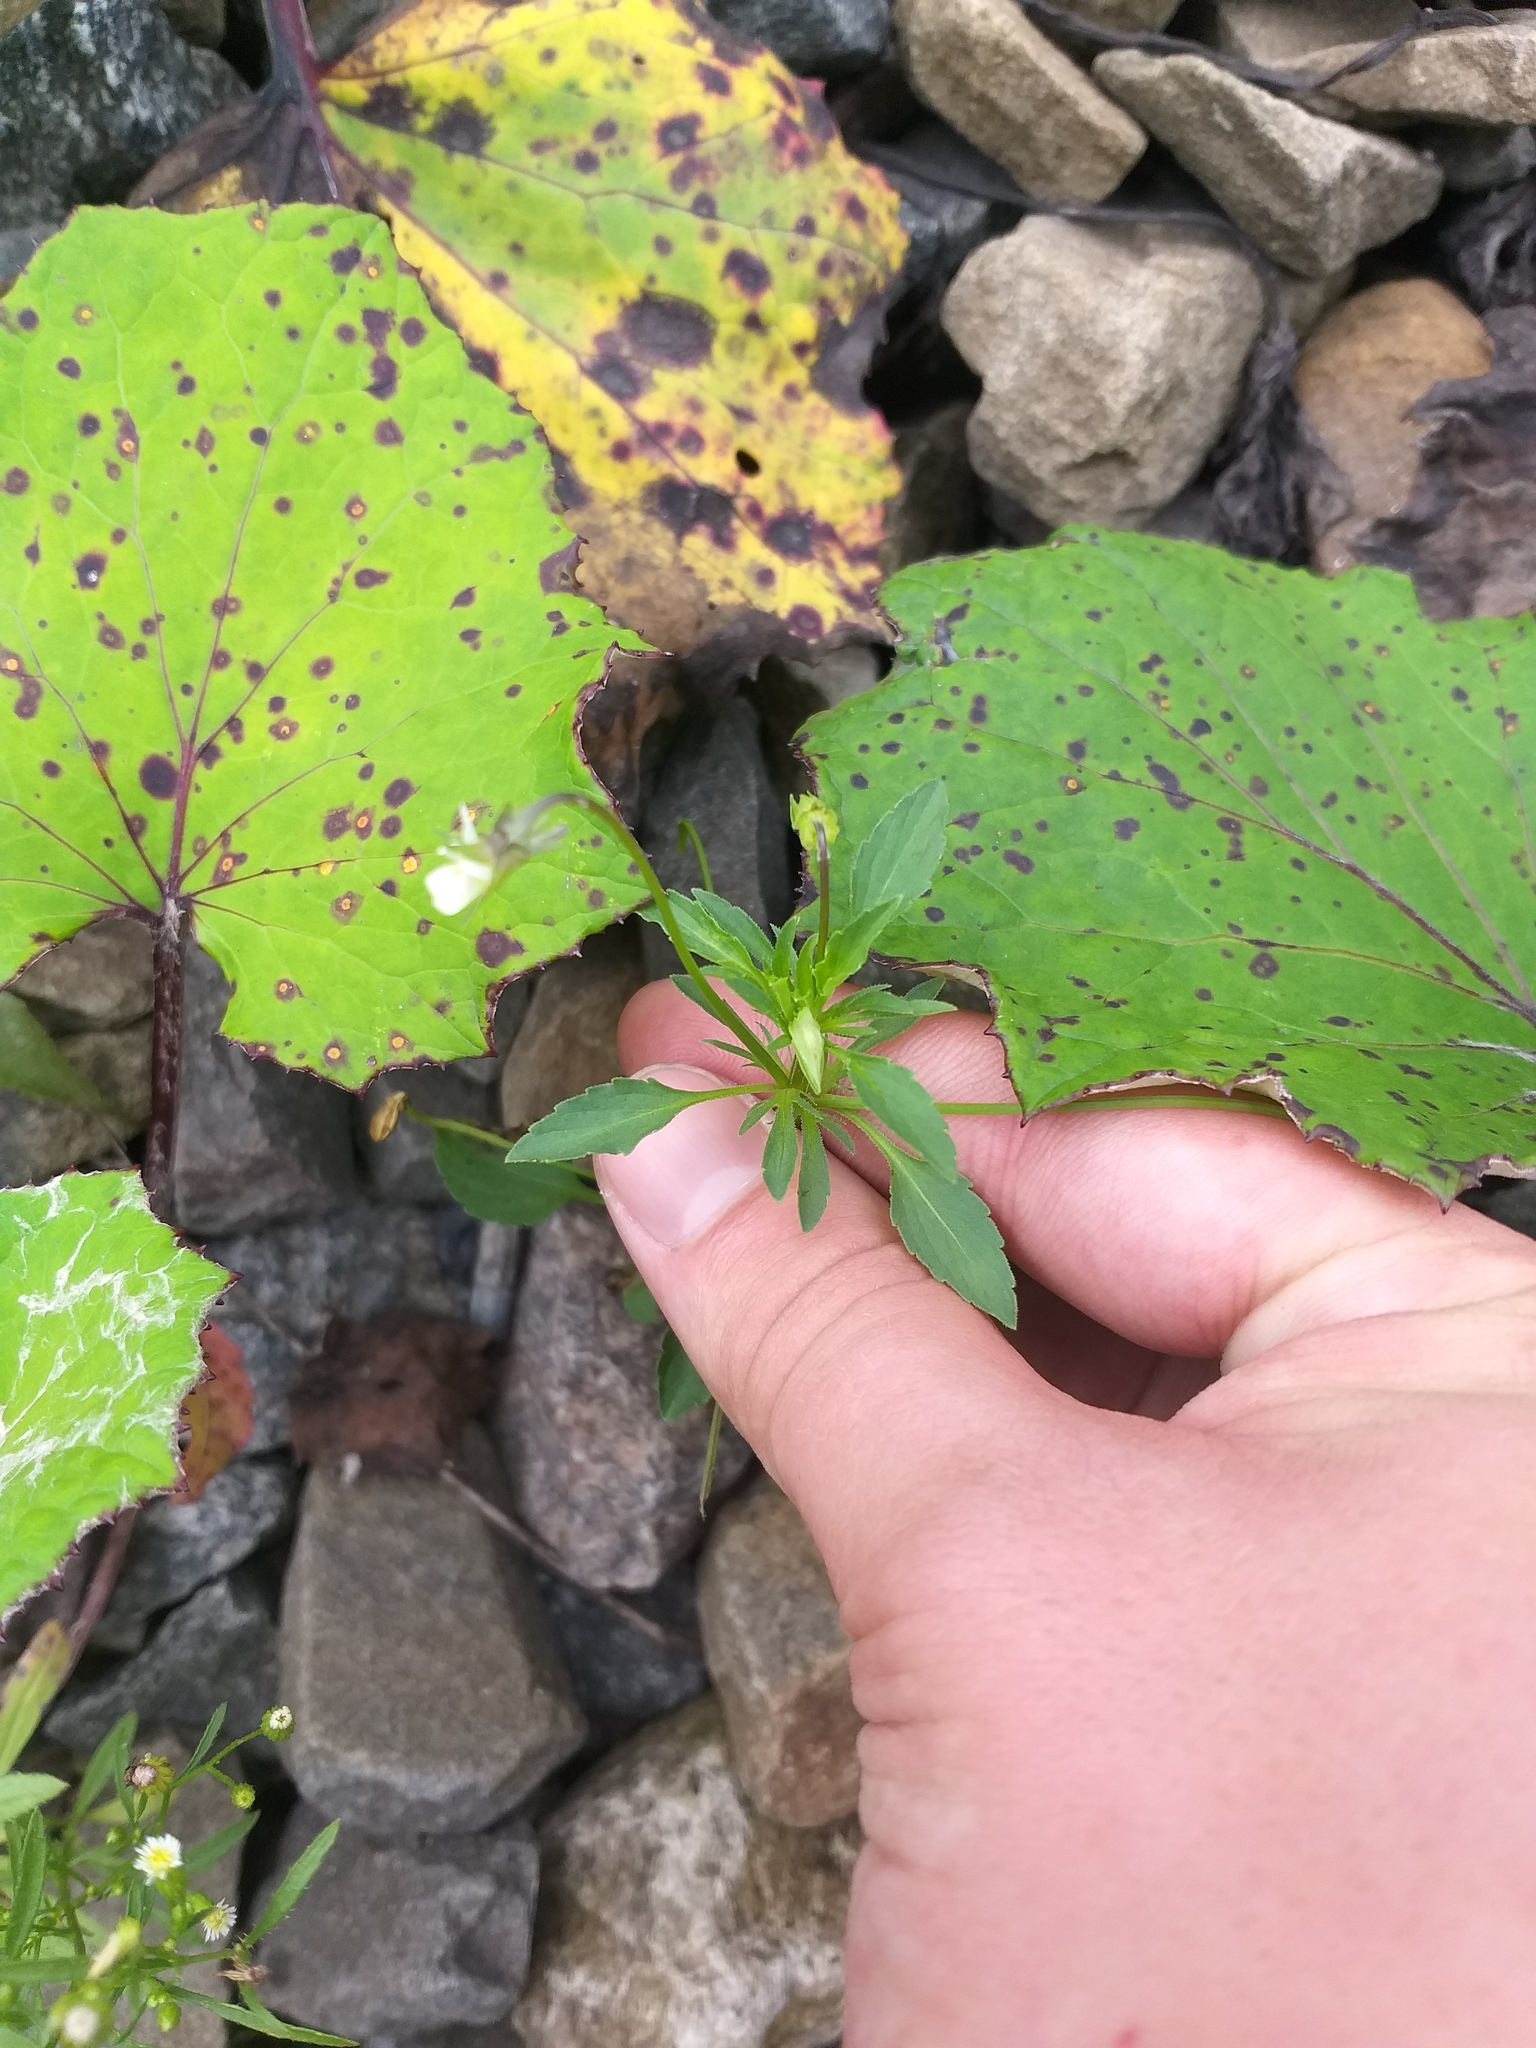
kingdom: Plantae
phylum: Tracheophyta
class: Magnoliopsida
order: Malpighiales
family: Violaceae
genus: Viola
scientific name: Viola arvensis
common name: Field pansy
